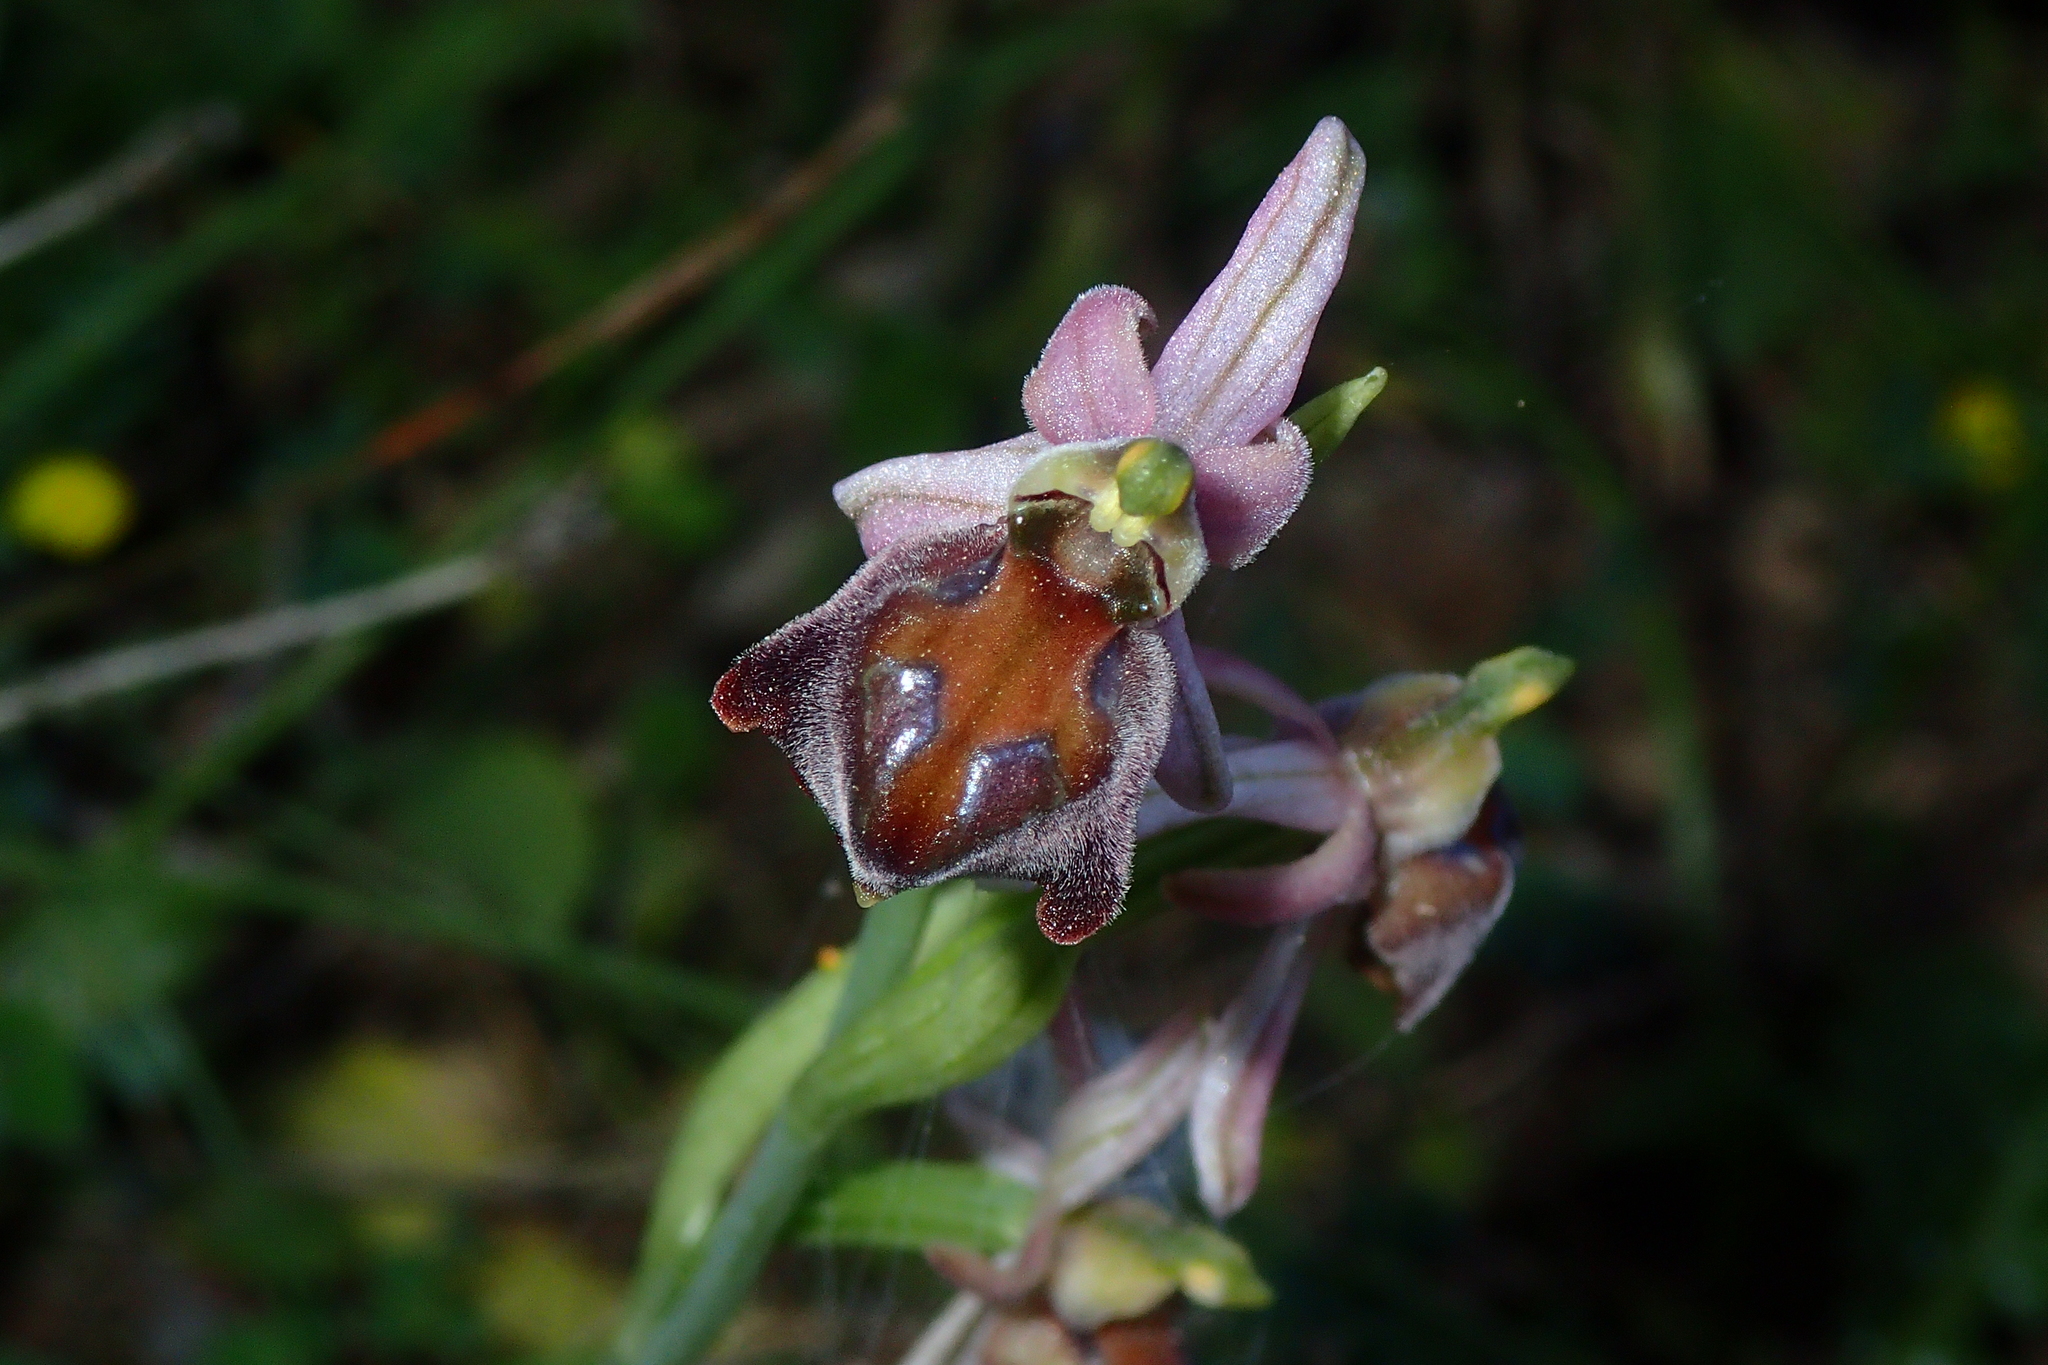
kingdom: Plantae
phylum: Tracheophyta
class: Liliopsida
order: Asparagales
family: Orchidaceae
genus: Ophrys
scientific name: Ophrys argolica
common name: Argolic ophrys
